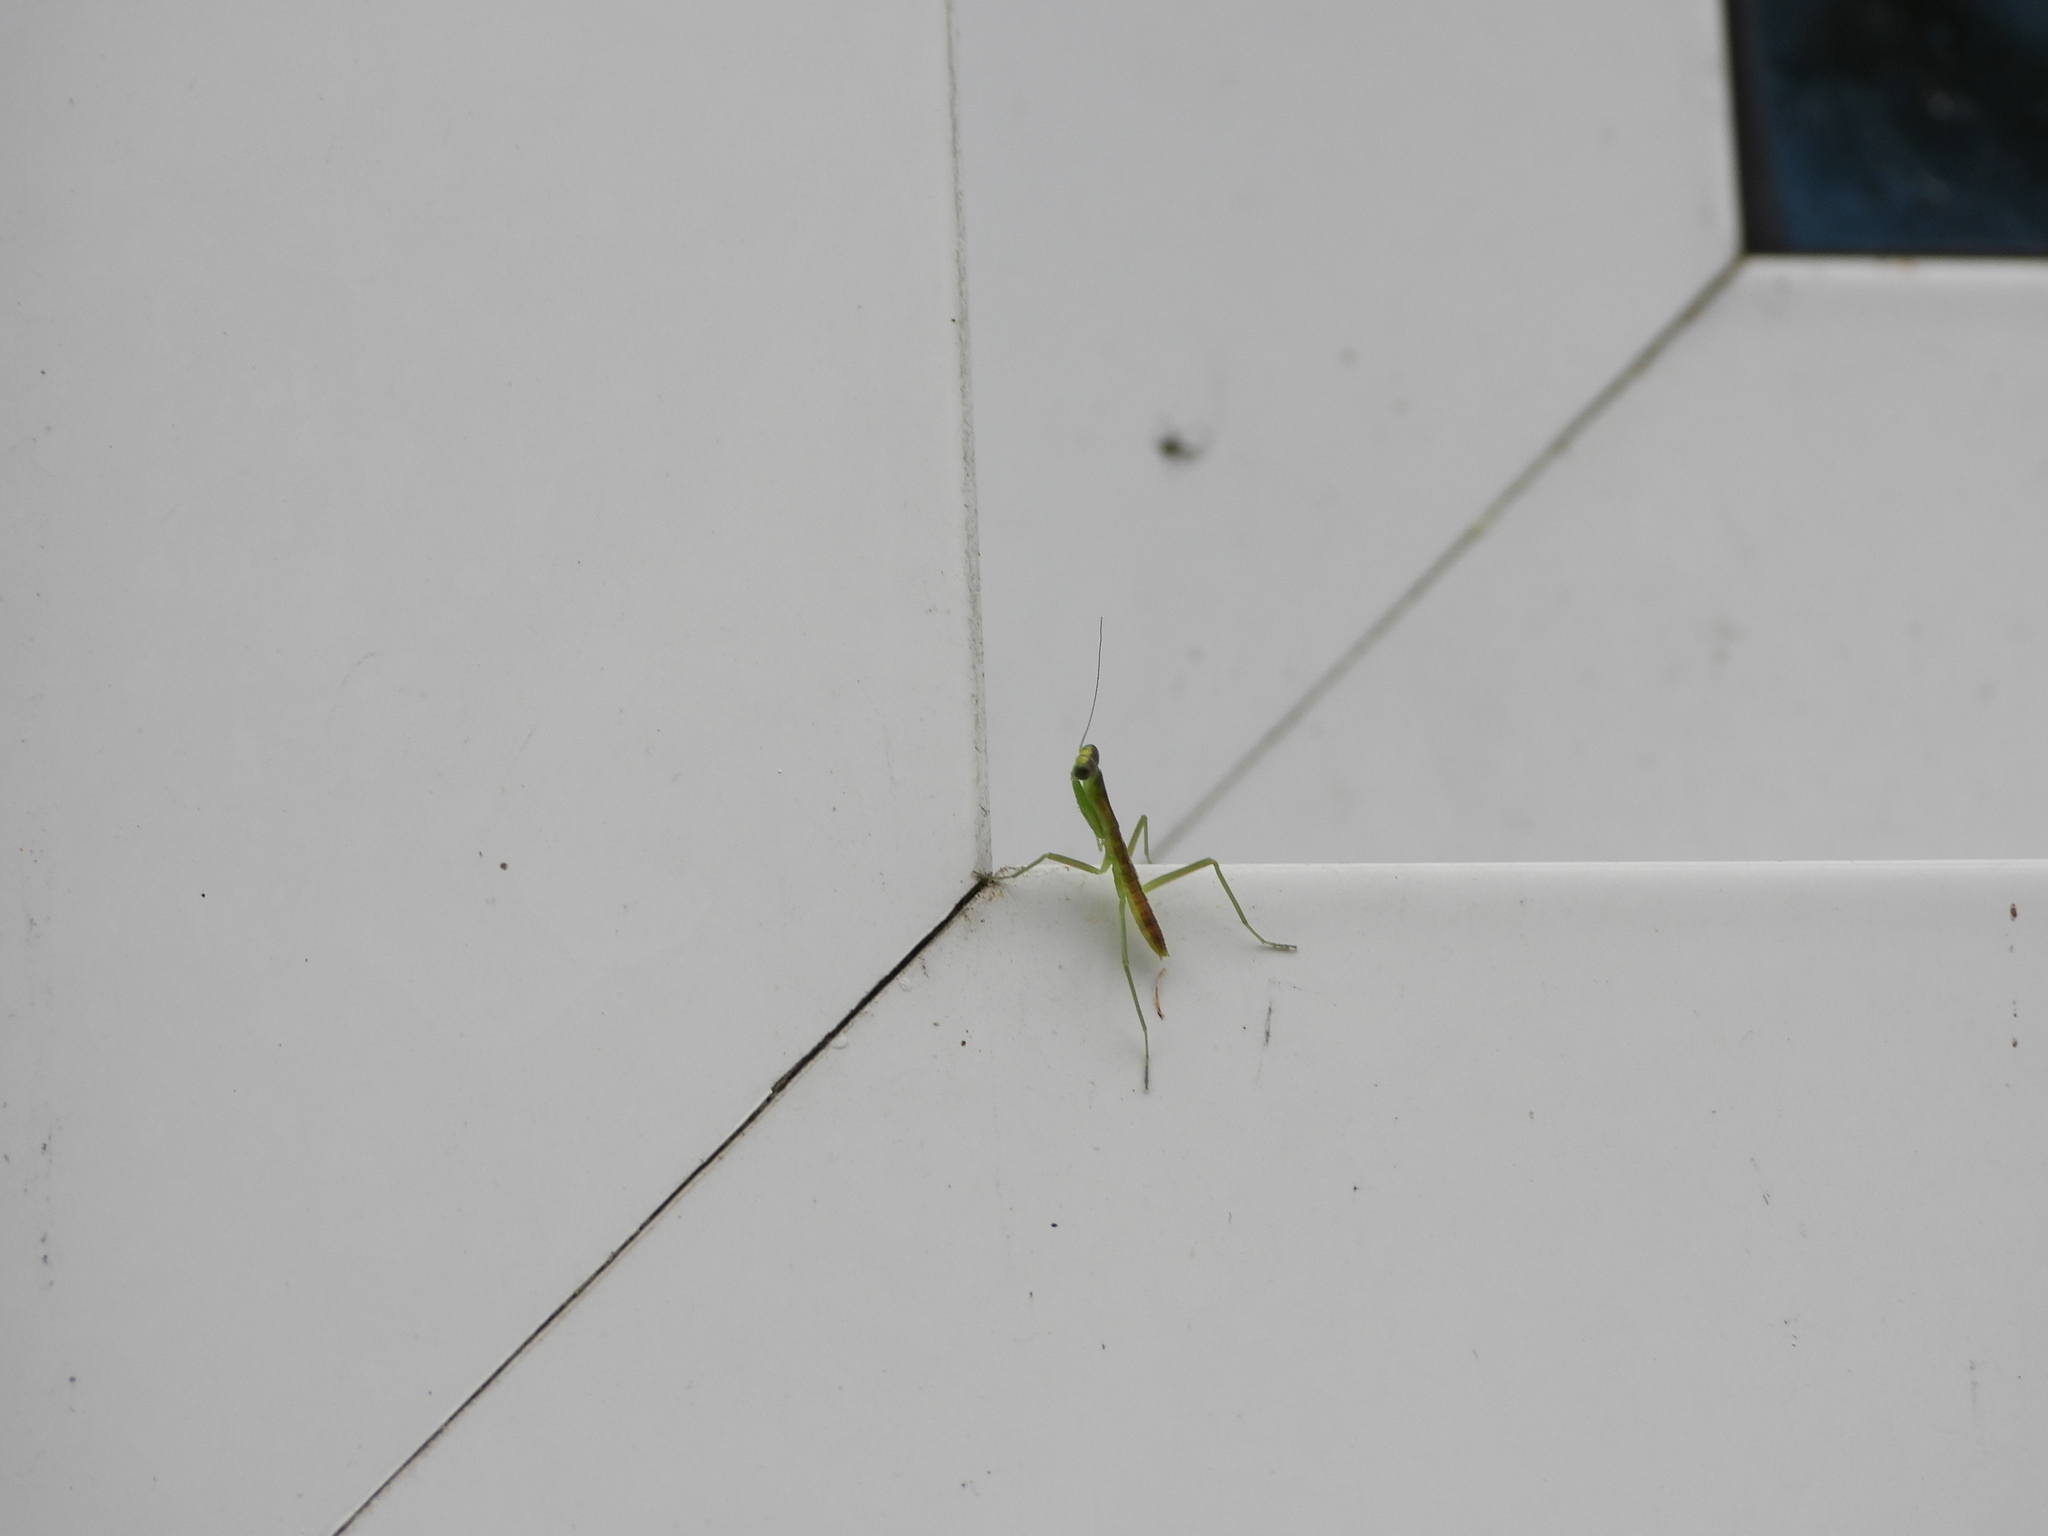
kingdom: Animalia
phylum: Arthropoda
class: Insecta
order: Mantodea
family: Mantidae
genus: Orthodera
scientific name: Orthodera novaezealandiae
